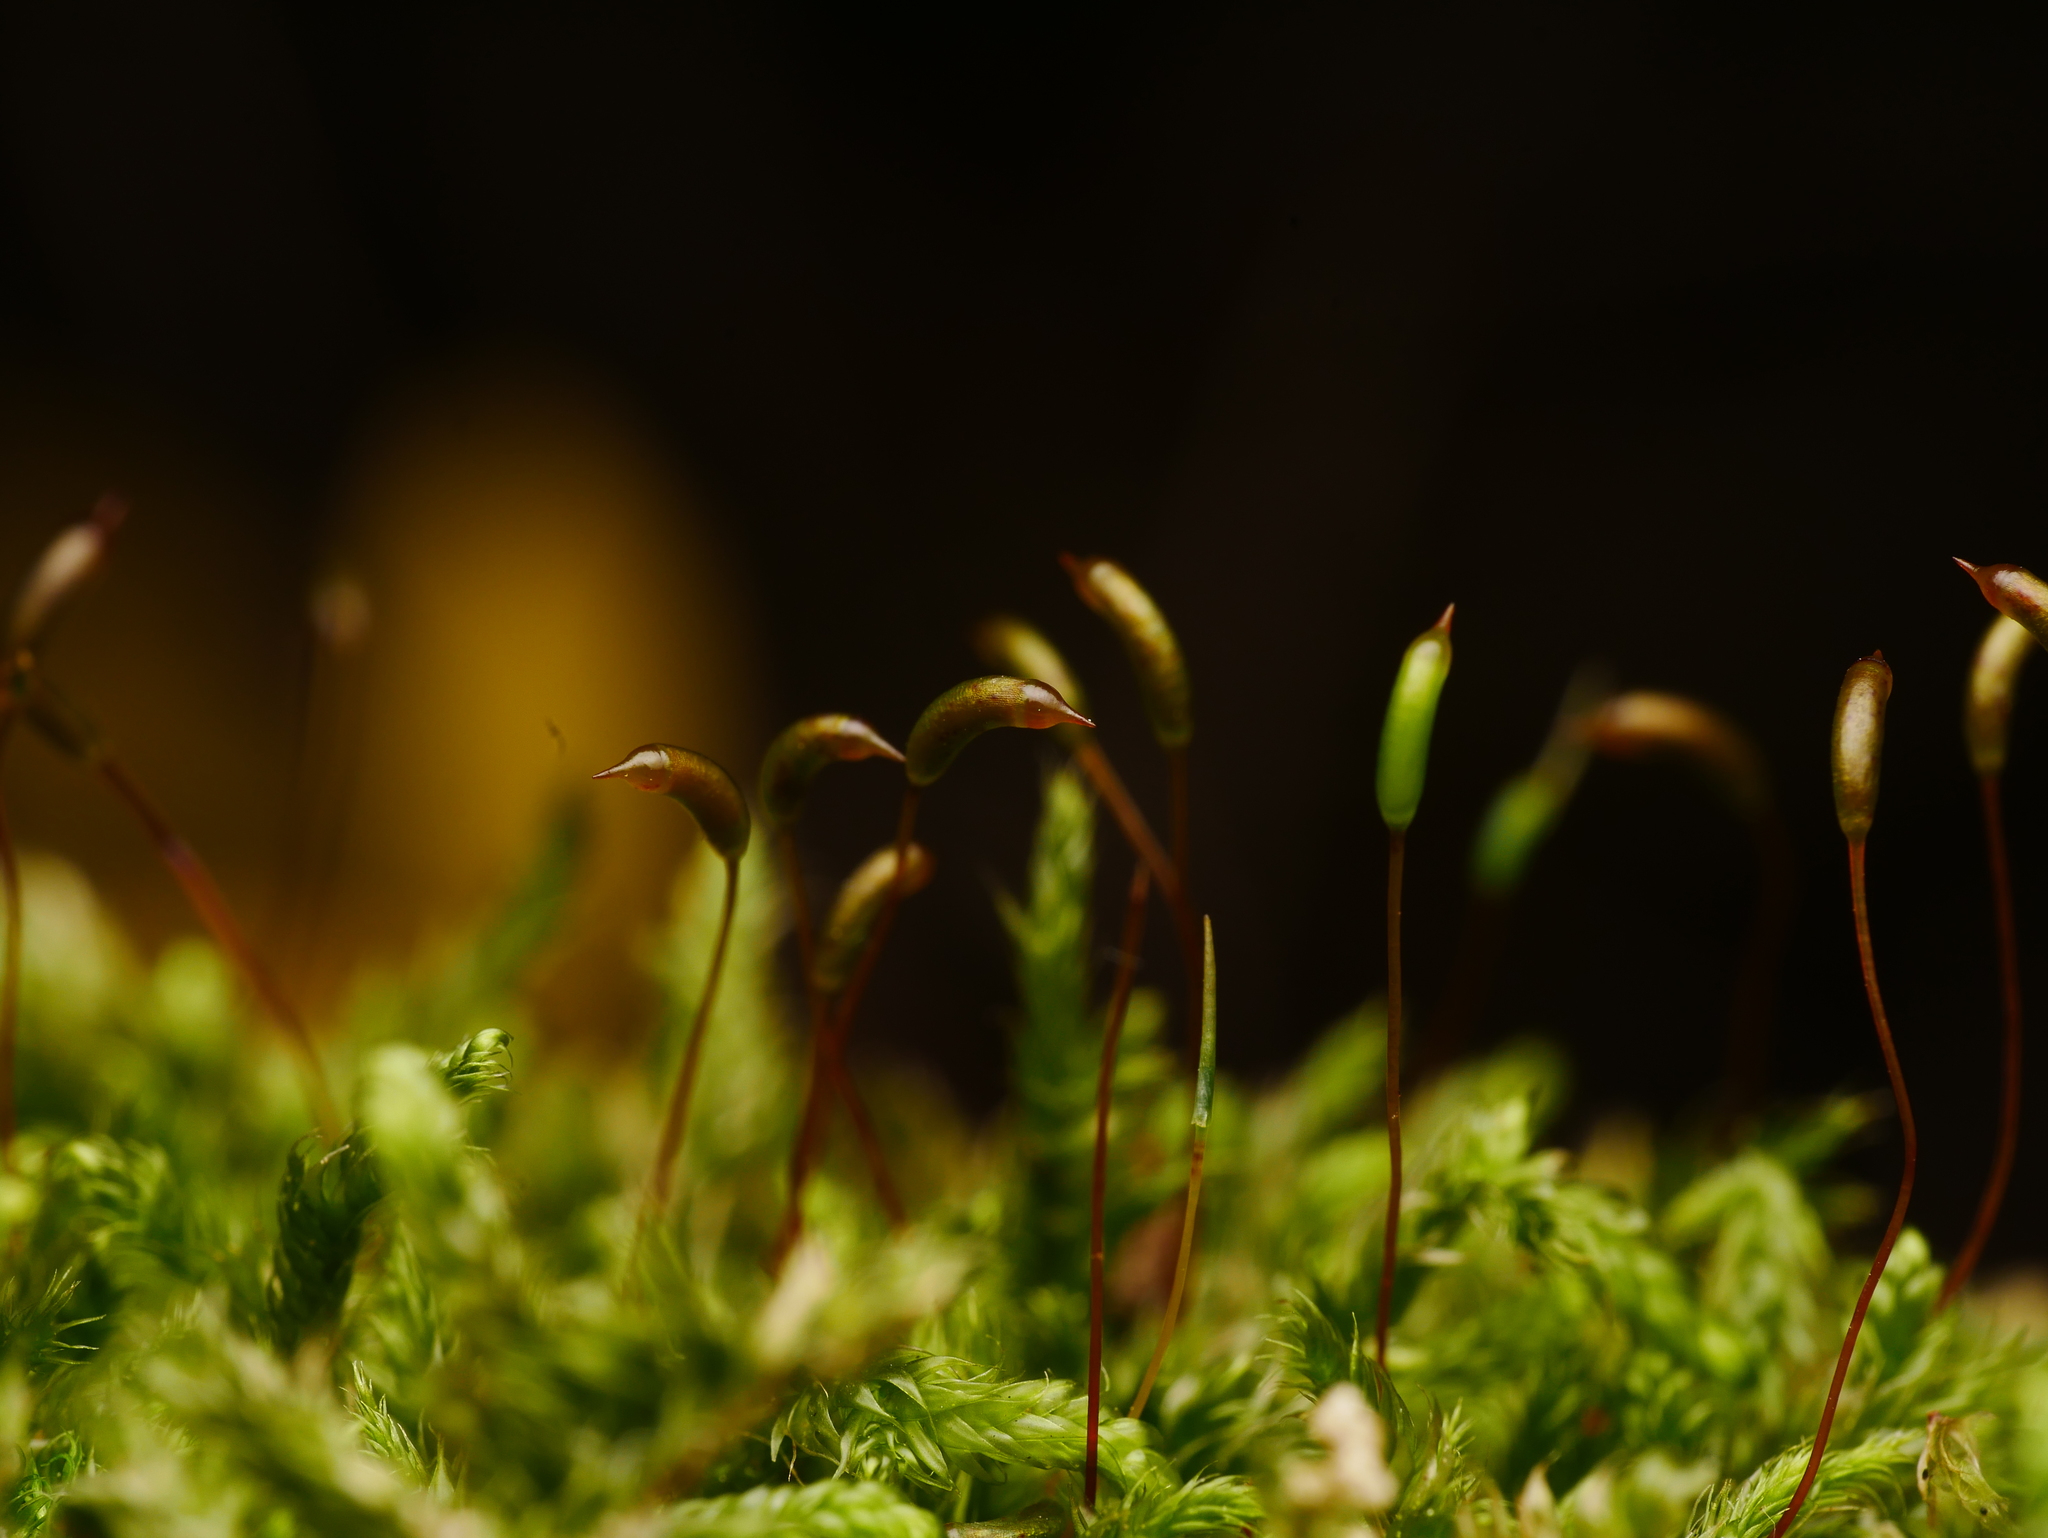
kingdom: Plantae
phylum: Bryophyta
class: Bryopsida
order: Hypnales
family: Hypnaceae
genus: Hypnum
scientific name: Hypnum cupressiforme
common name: Cypress-leaved plait-moss
